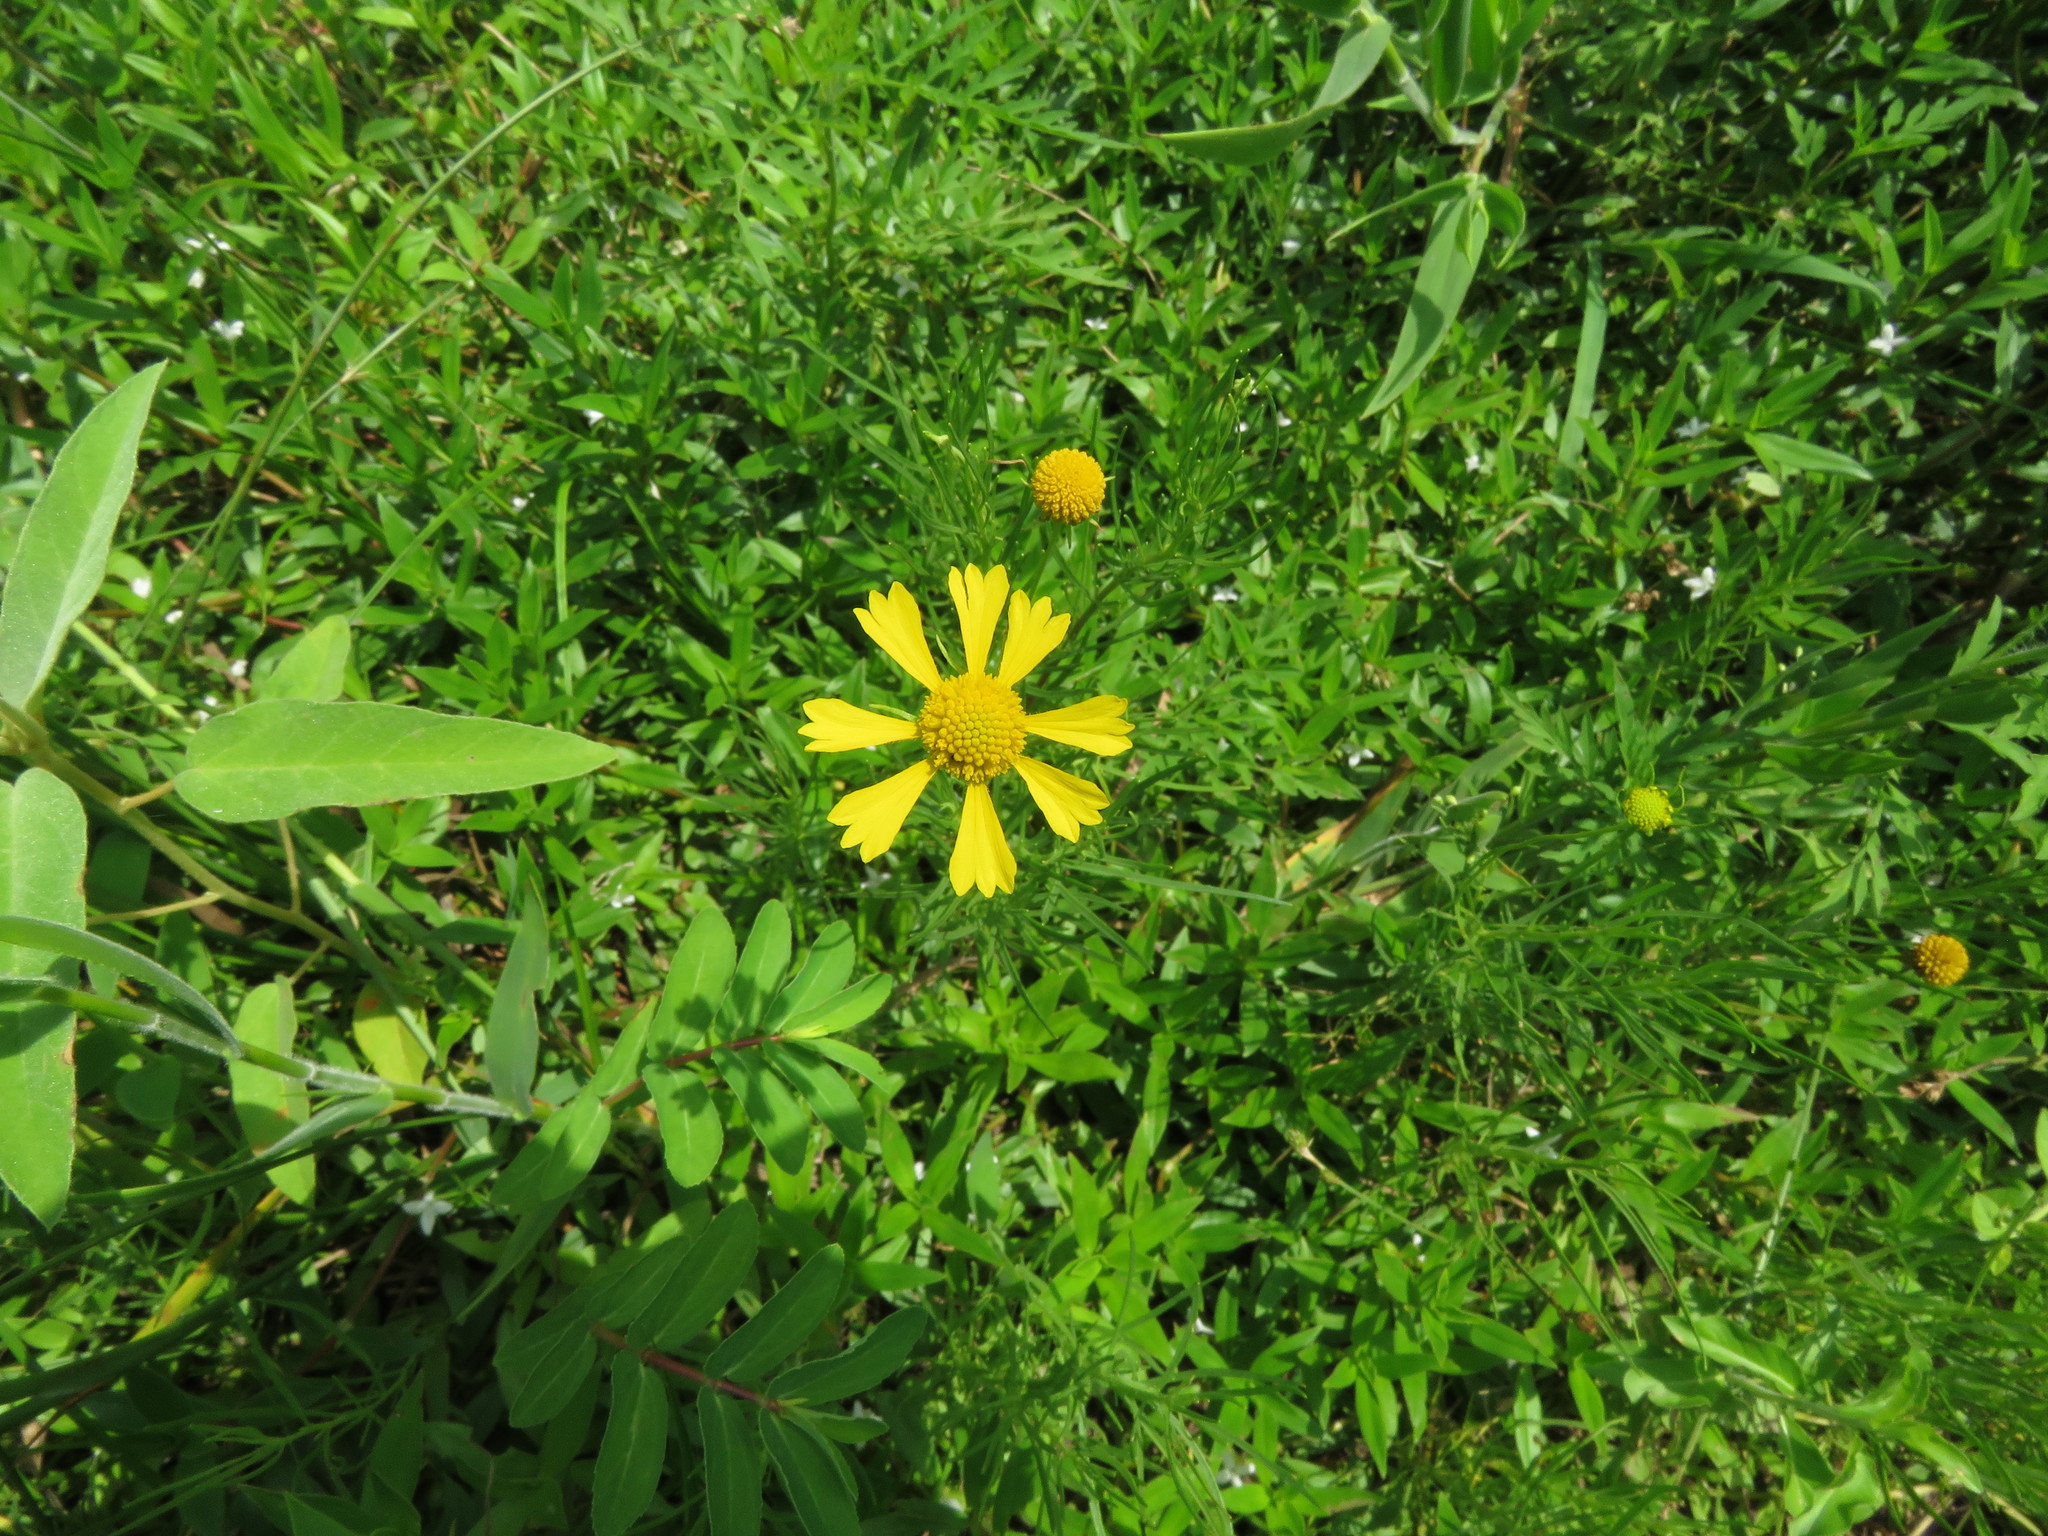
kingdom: Plantae
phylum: Tracheophyta
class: Magnoliopsida
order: Asterales
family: Asteraceae
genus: Helenium
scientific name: Helenium amarum
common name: Bitter sneezeweed
